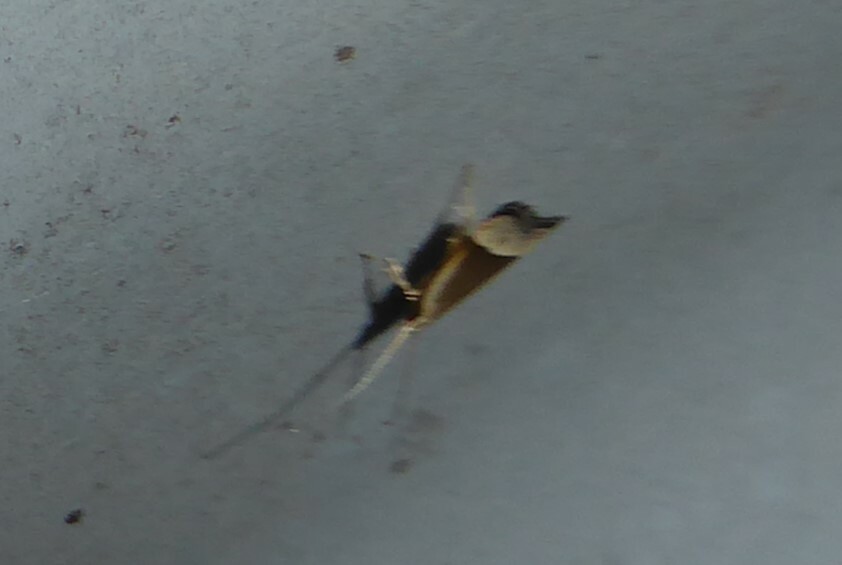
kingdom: Animalia
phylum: Arthropoda
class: Insecta
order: Lepidoptera
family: Lecithoceridae
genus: Sarisophora
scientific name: Sarisophora tenella
